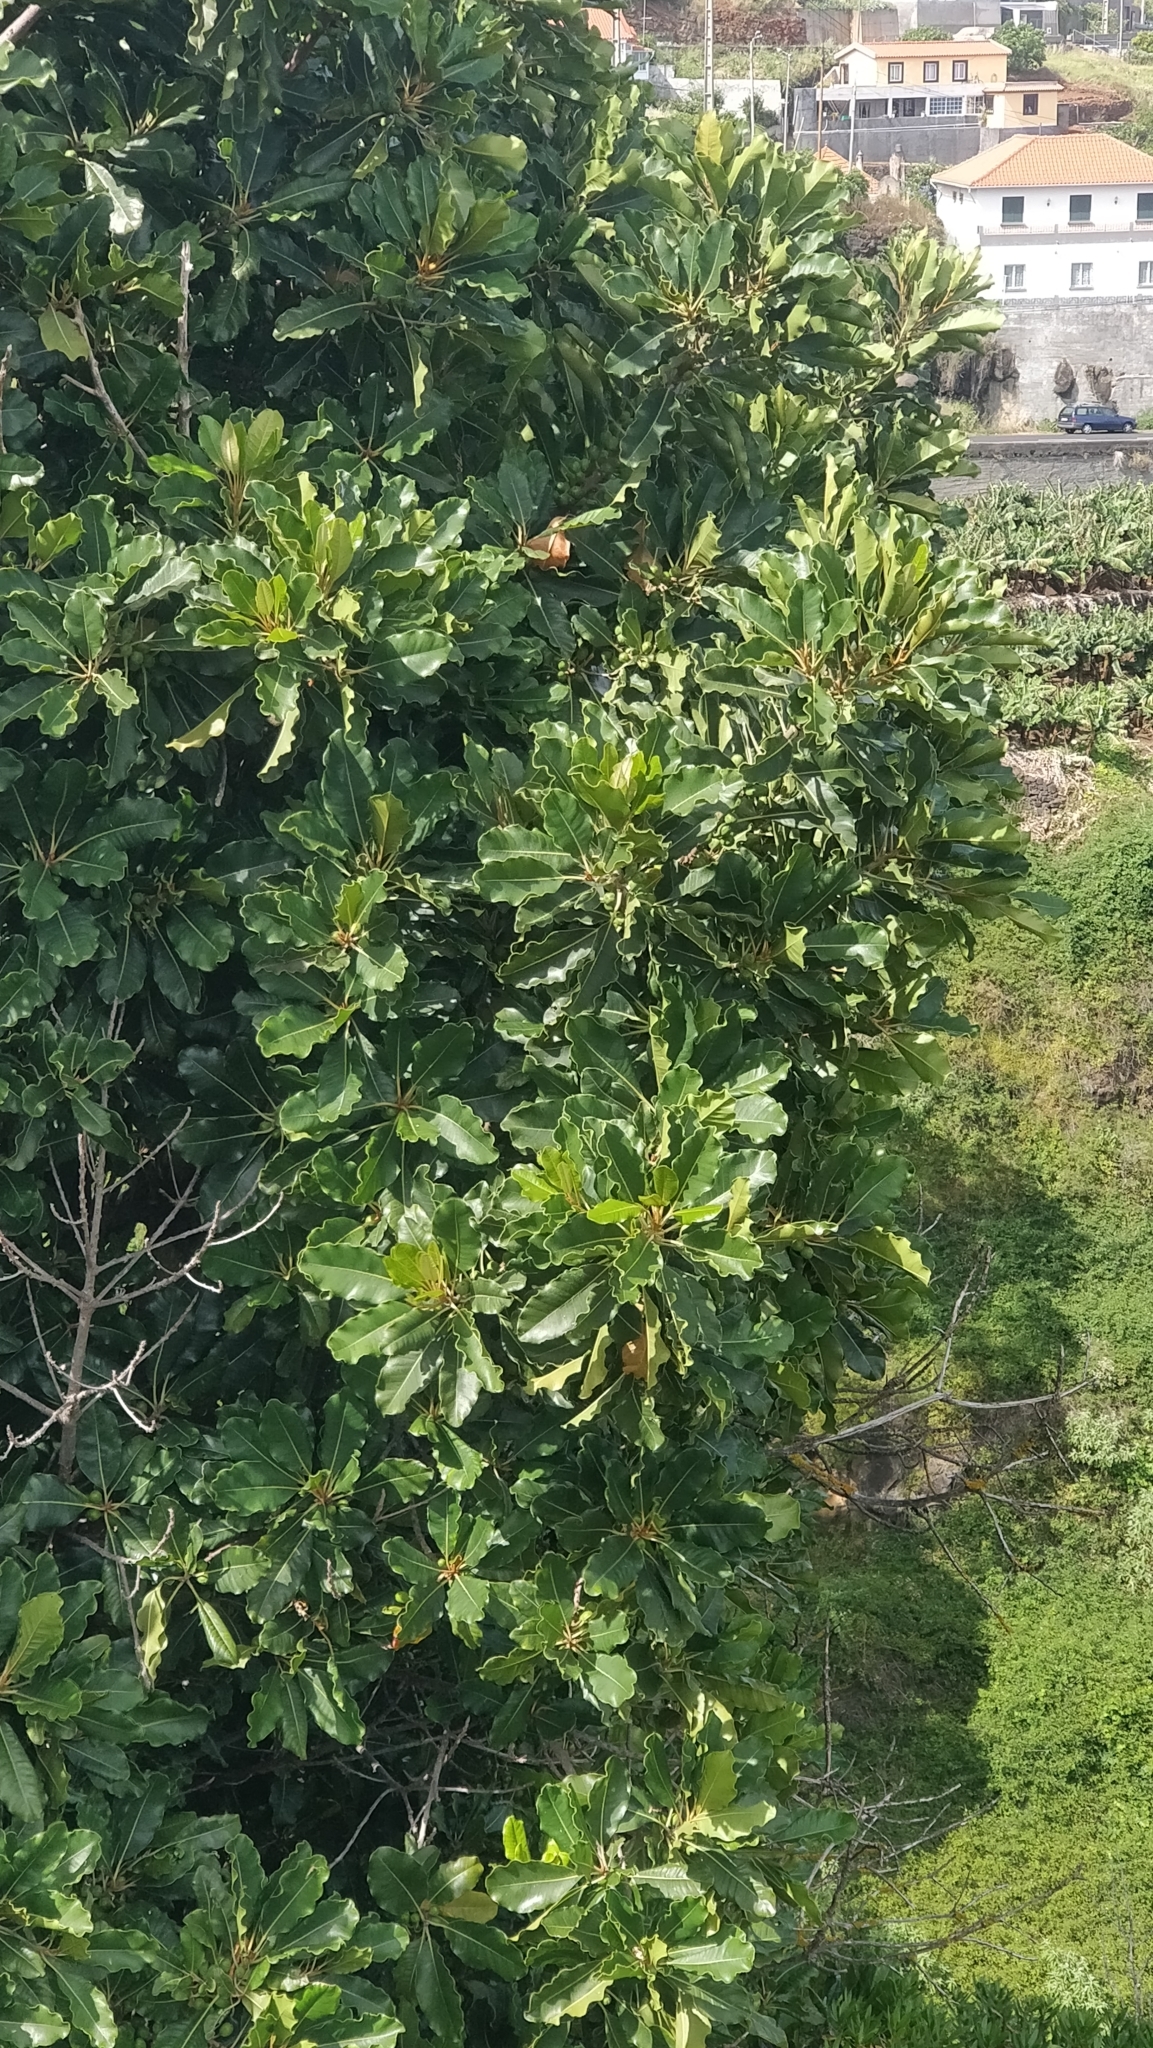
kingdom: Plantae
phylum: Tracheophyta
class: Magnoliopsida
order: Ericales
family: Sapotaceae
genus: Sideroxylon
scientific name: Sideroxylon mirmulans
